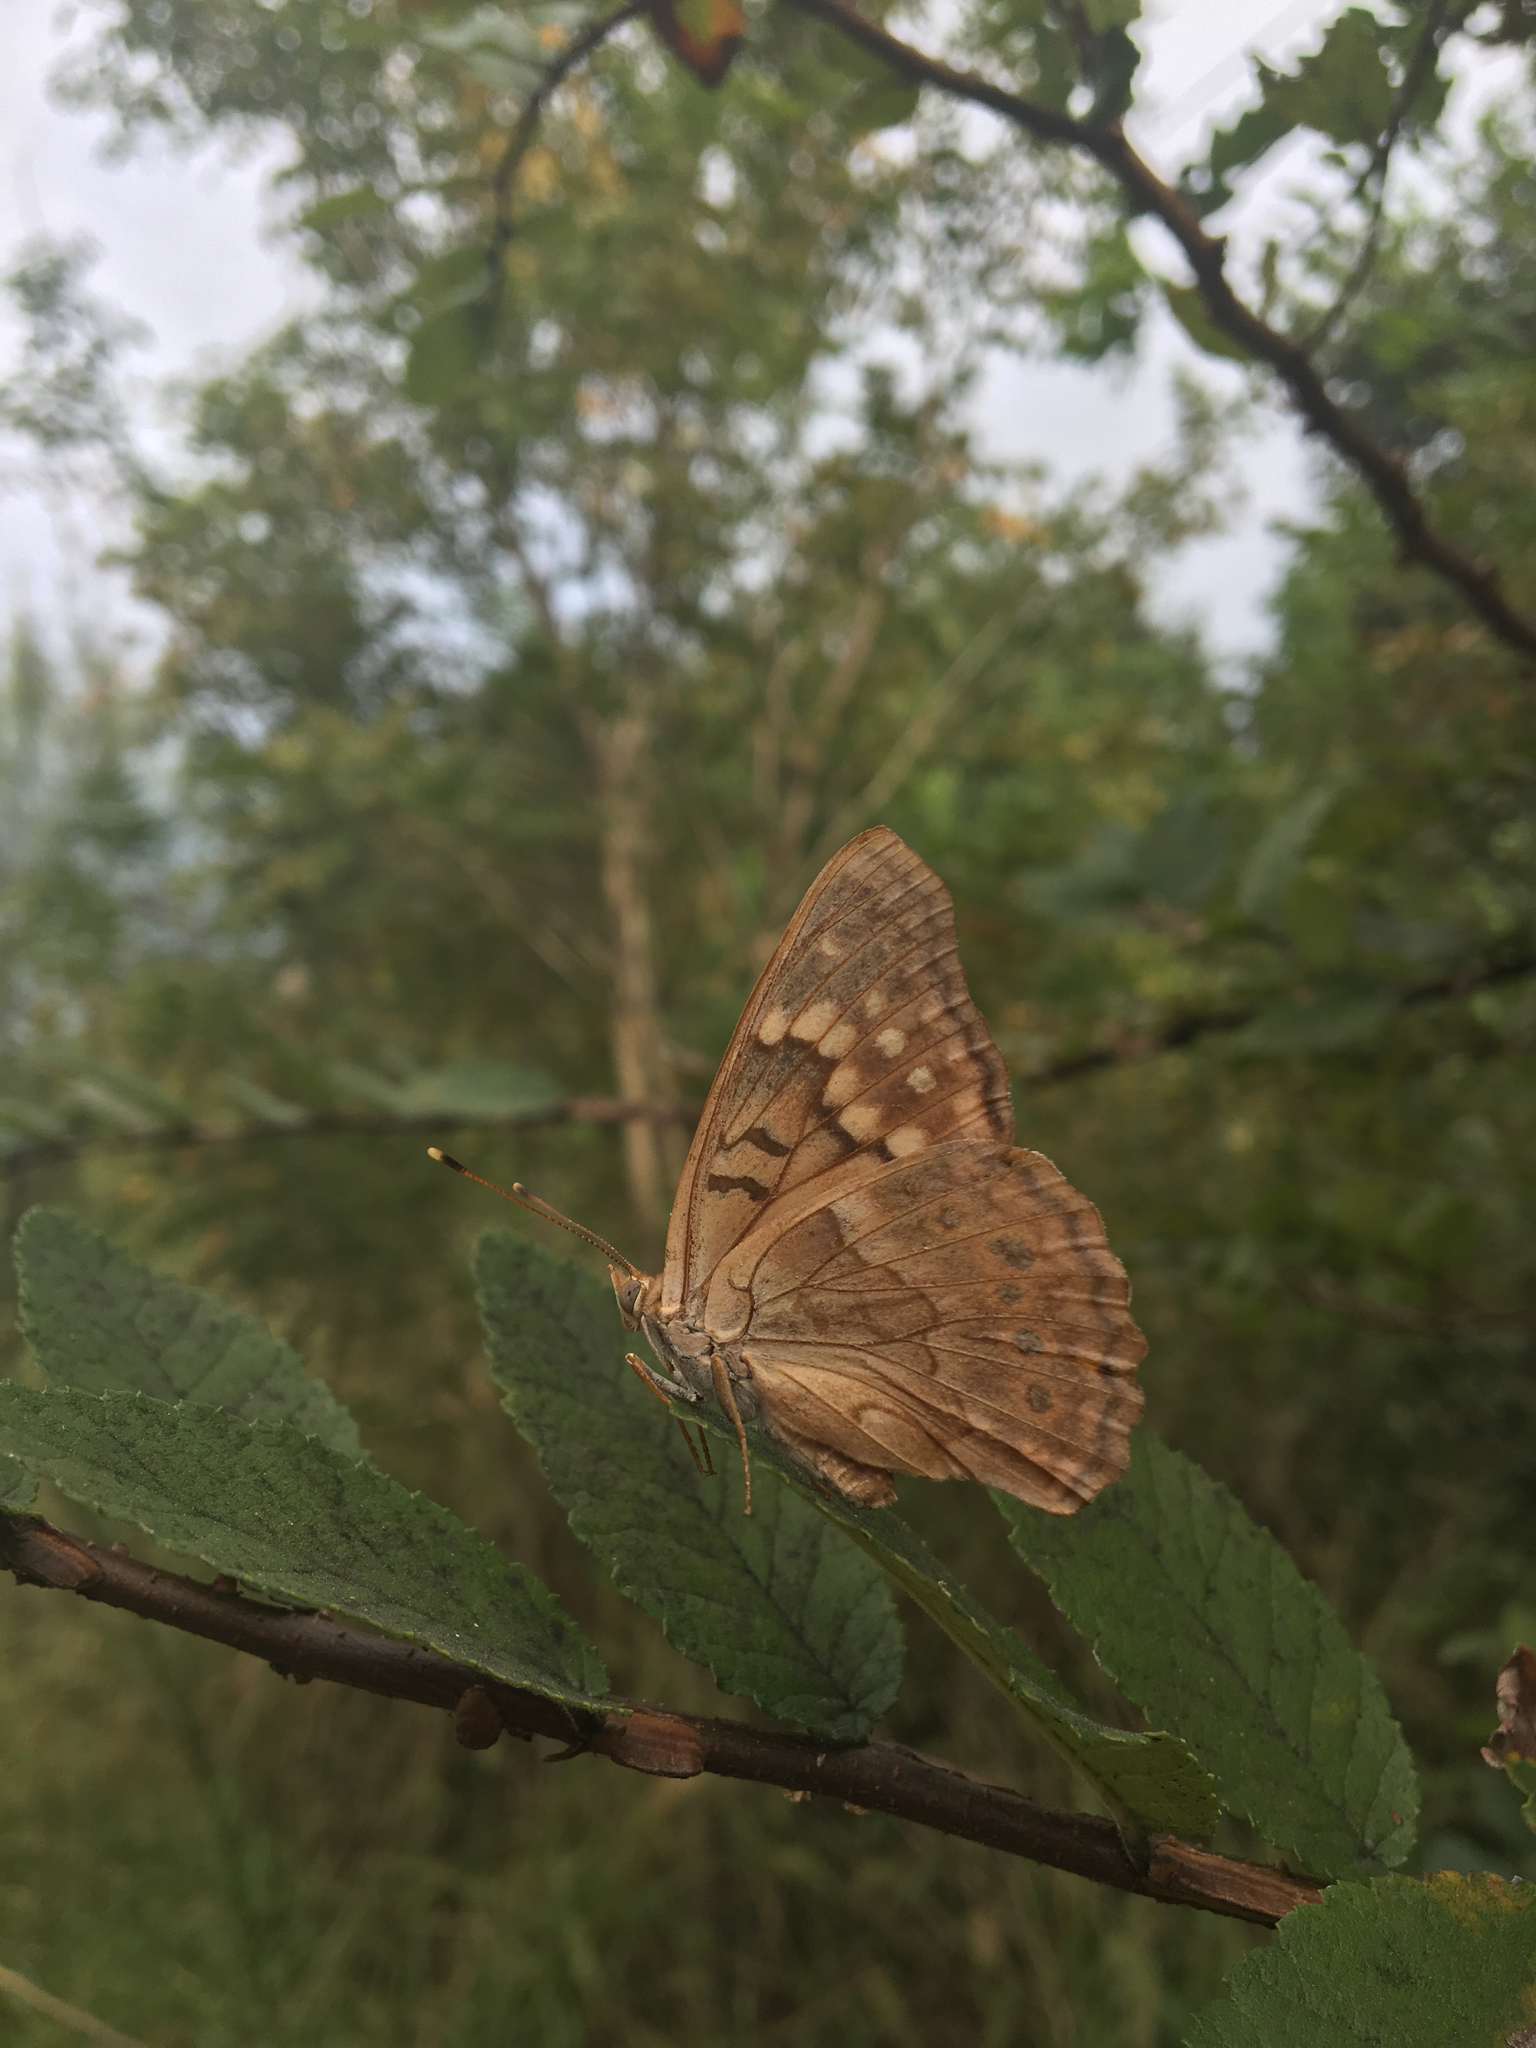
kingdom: Animalia
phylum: Arthropoda
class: Insecta
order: Lepidoptera
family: Nymphalidae
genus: Asterocampa
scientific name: Asterocampa clyton
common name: Tawny emperor
